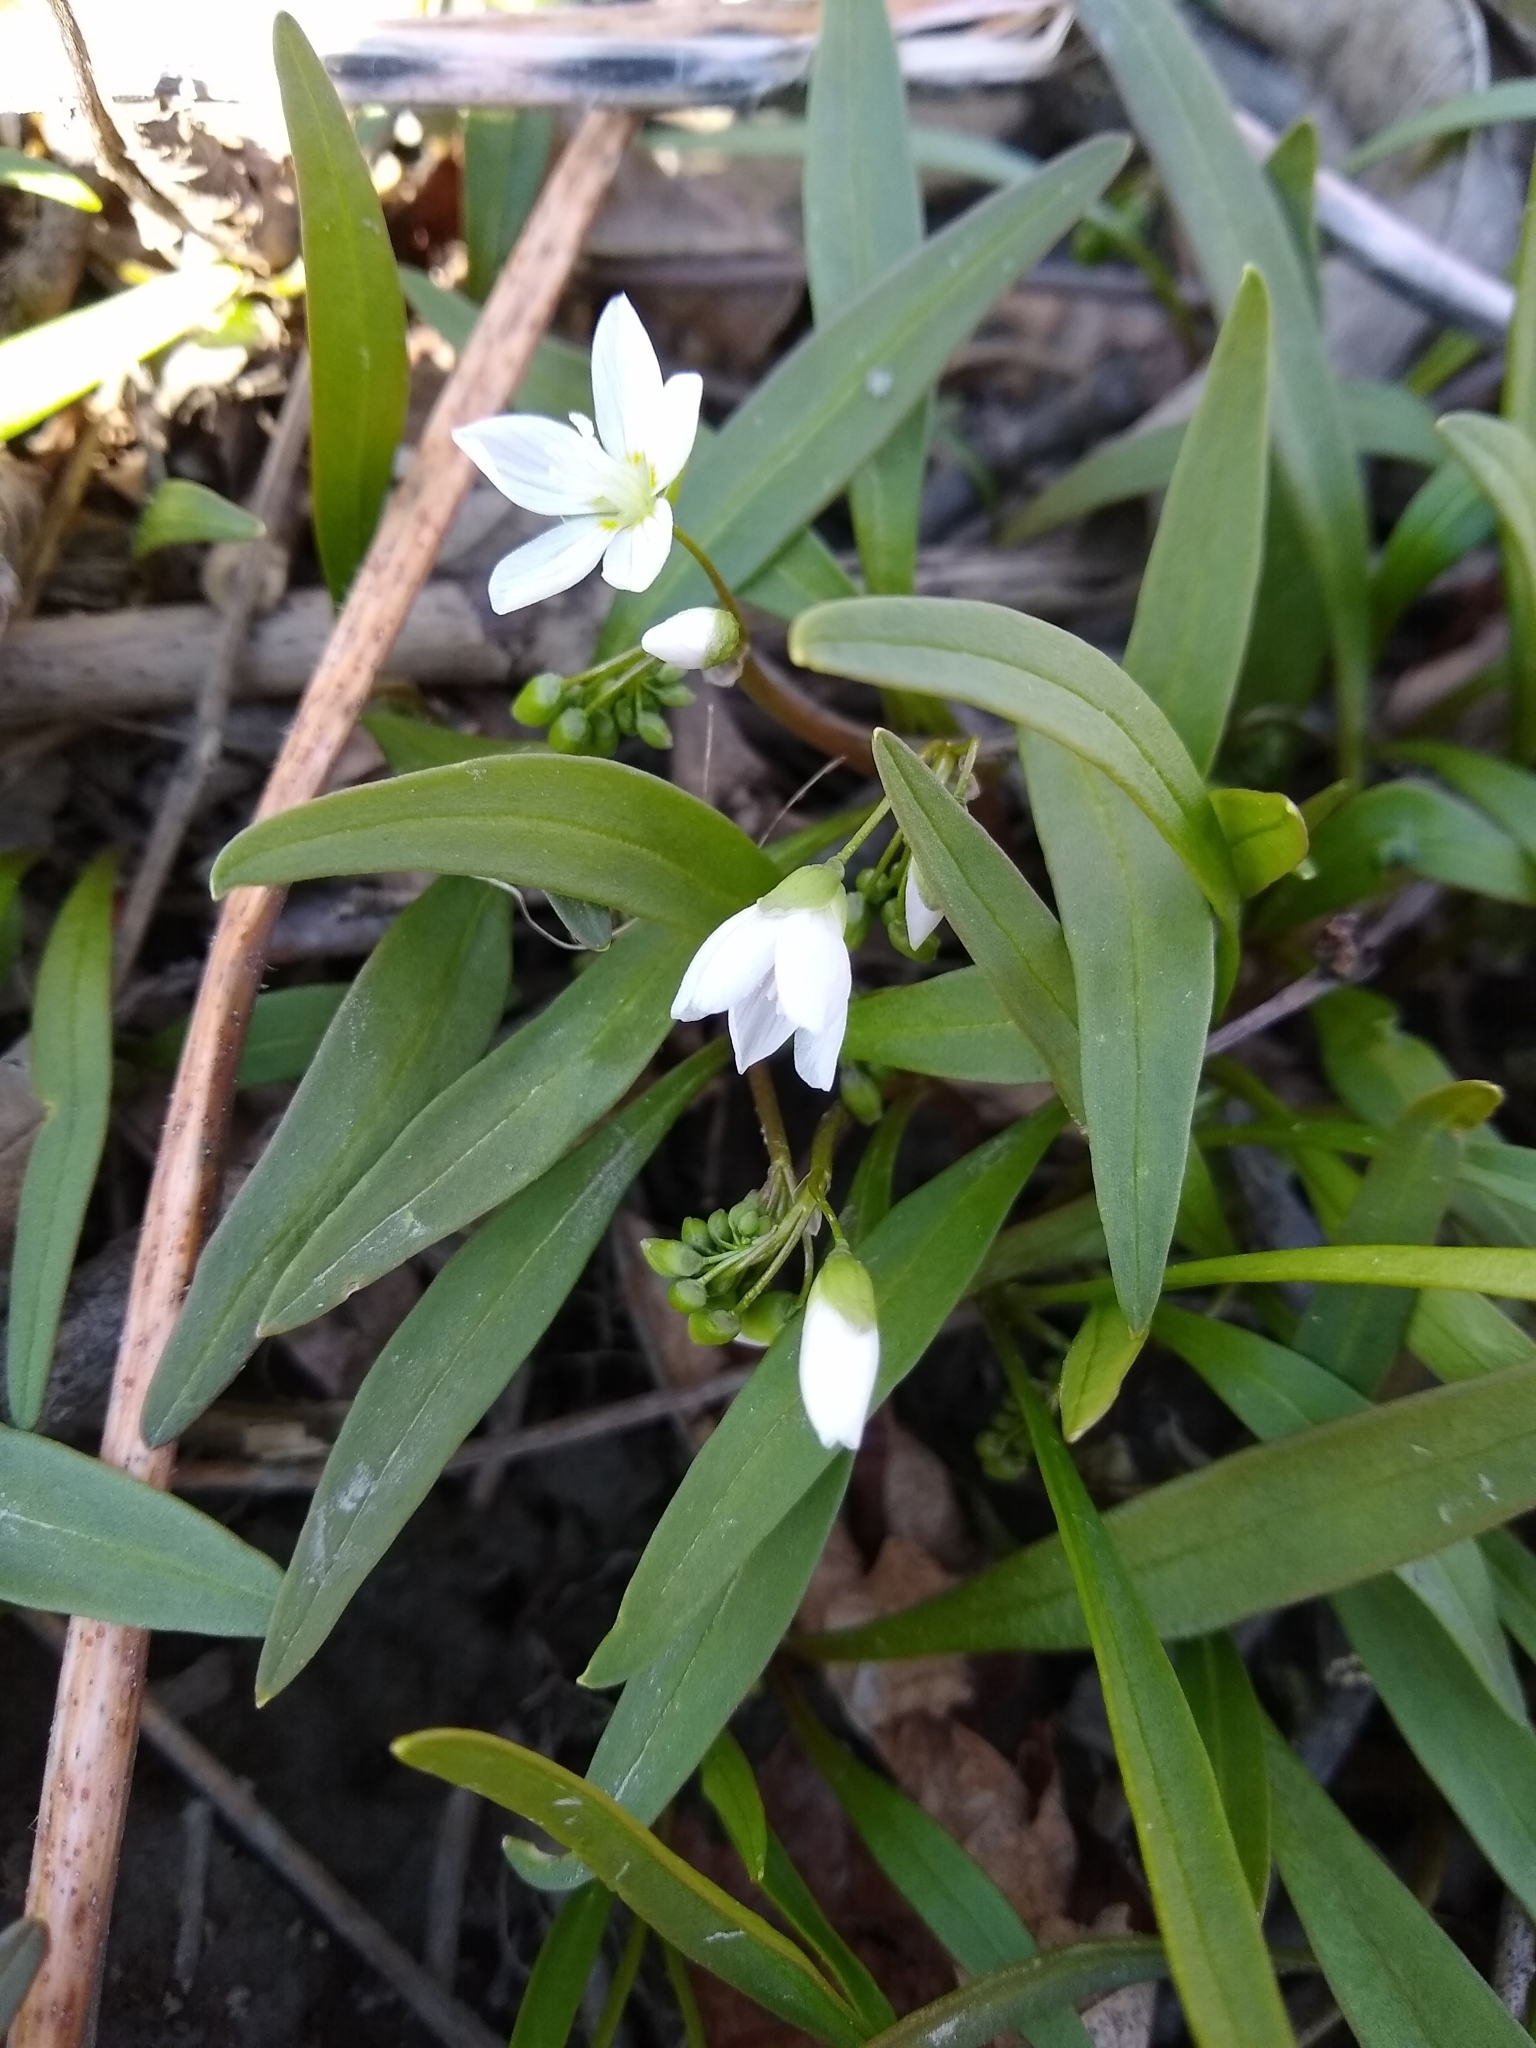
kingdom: Plantae
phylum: Tracheophyta
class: Magnoliopsida
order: Caryophyllales
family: Montiaceae
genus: Claytonia
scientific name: Claytonia virginica
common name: Virginia springbeauty
